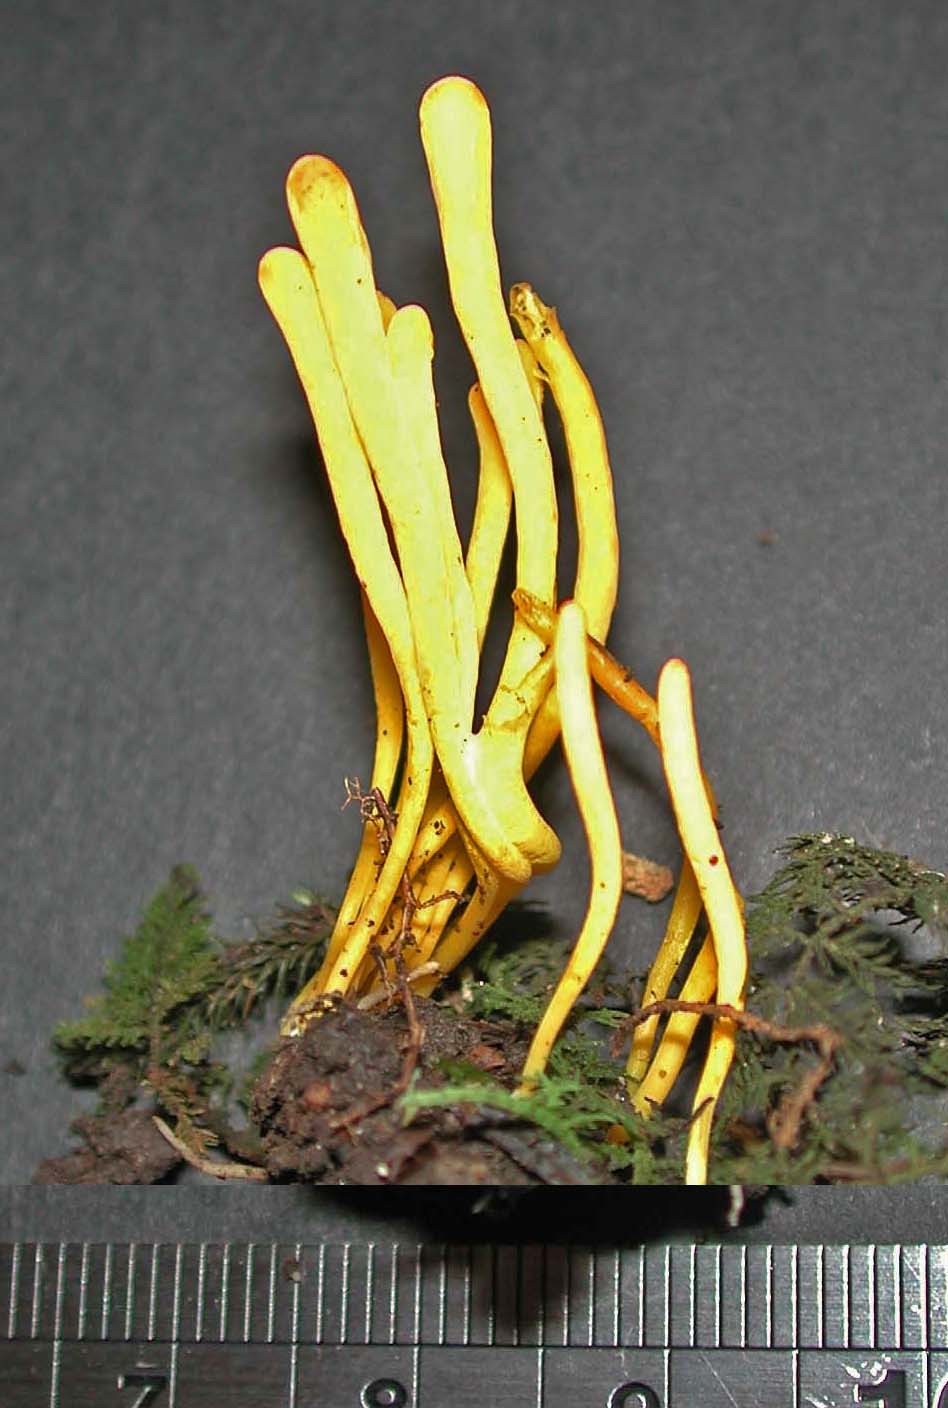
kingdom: Fungi
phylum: Basidiomycota
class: Agaricomycetes
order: Agaricales
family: Clavariaceae
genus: Clavulinopsis
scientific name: Clavulinopsis amoena
